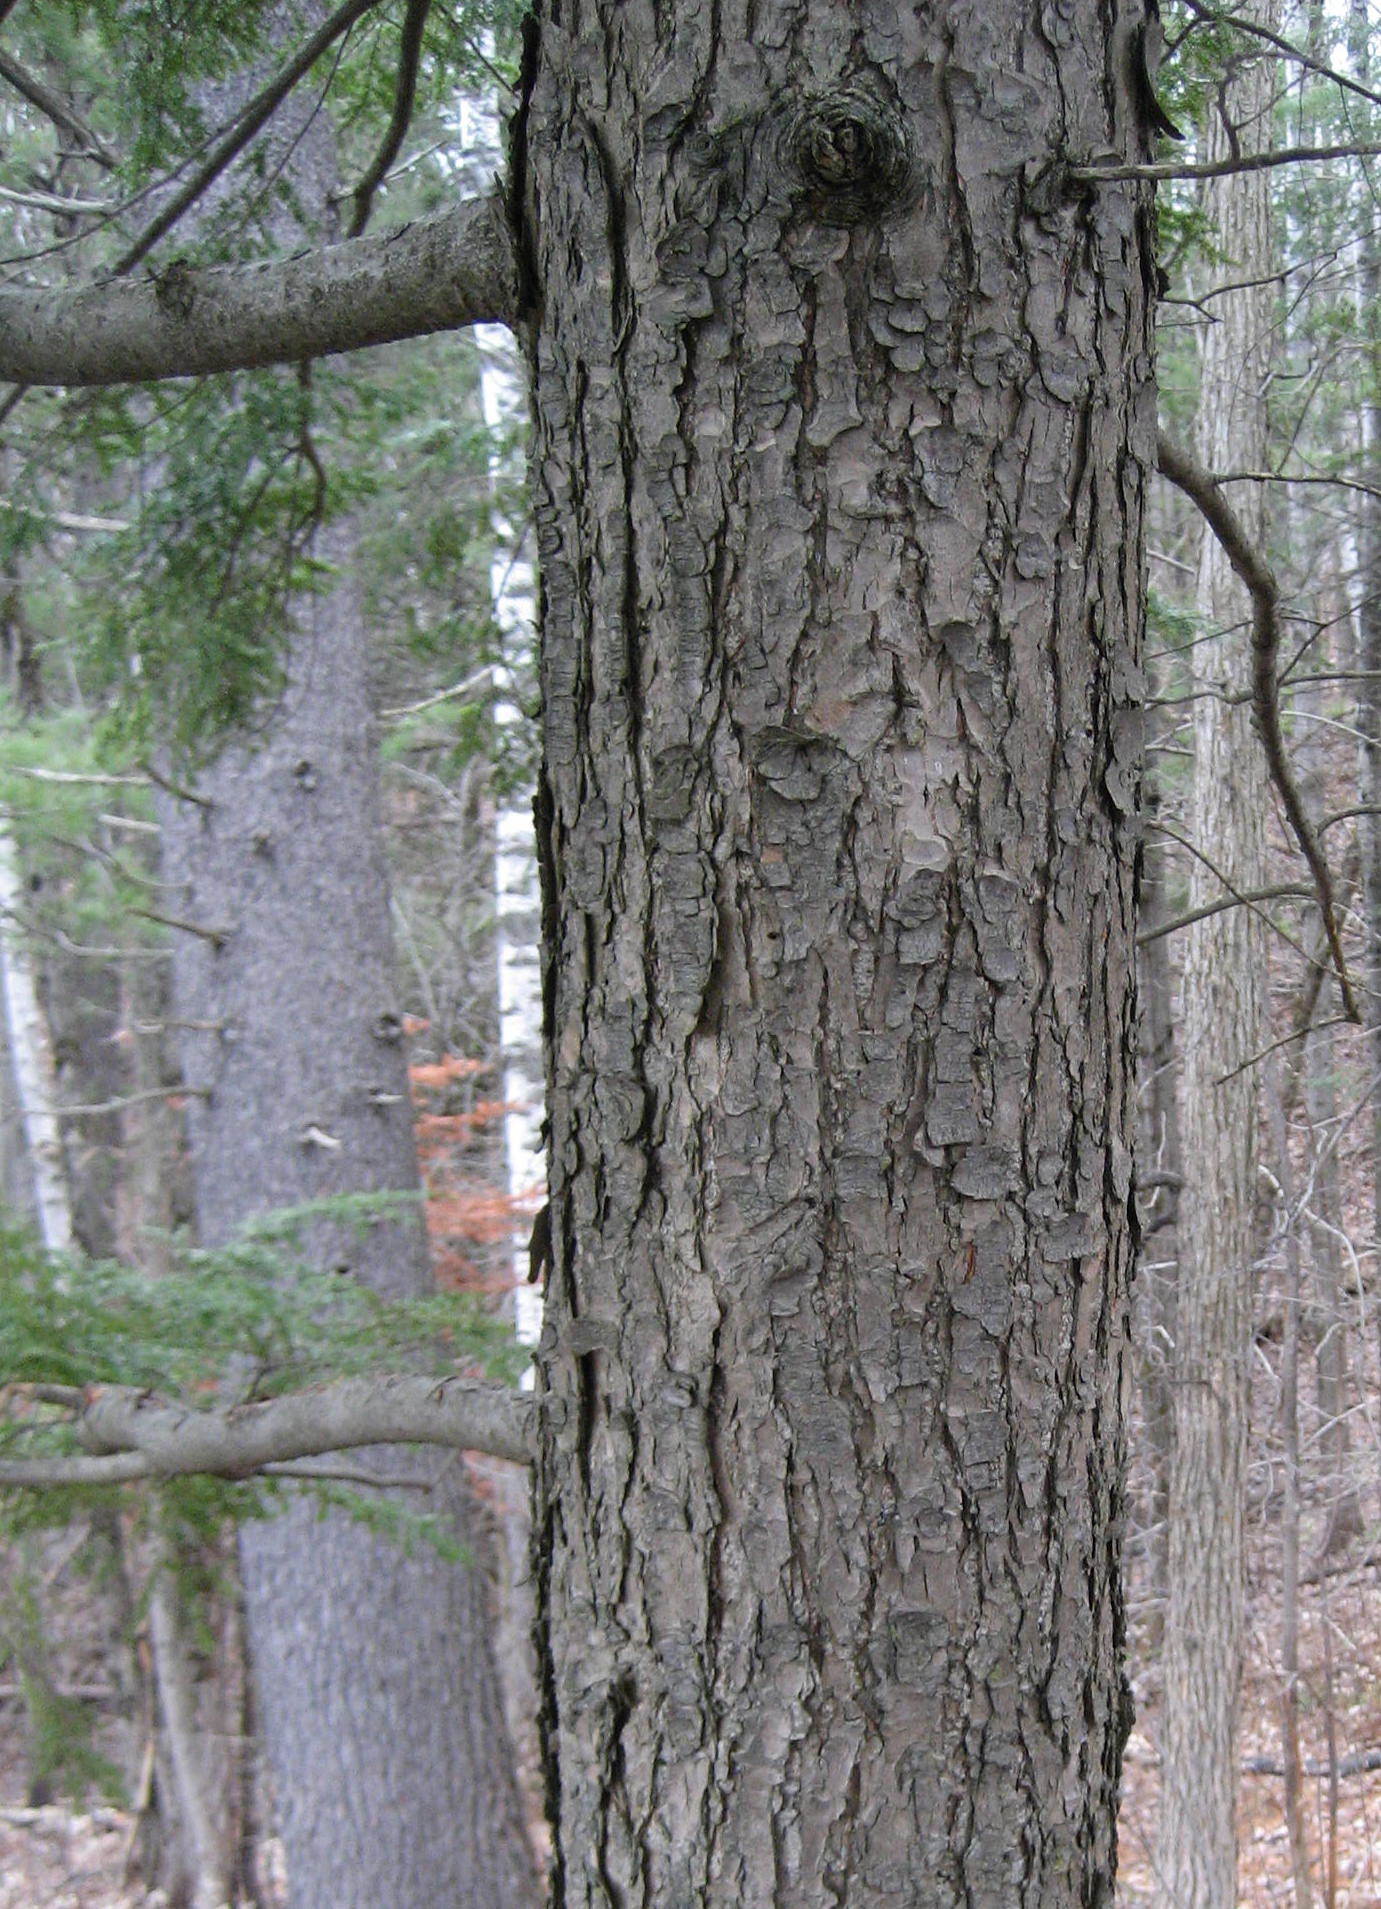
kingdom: Plantae
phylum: Tracheophyta
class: Pinopsida
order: Pinales
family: Pinaceae
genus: Tsuga
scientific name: Tsuga canadensis
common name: Eastern hemlock
